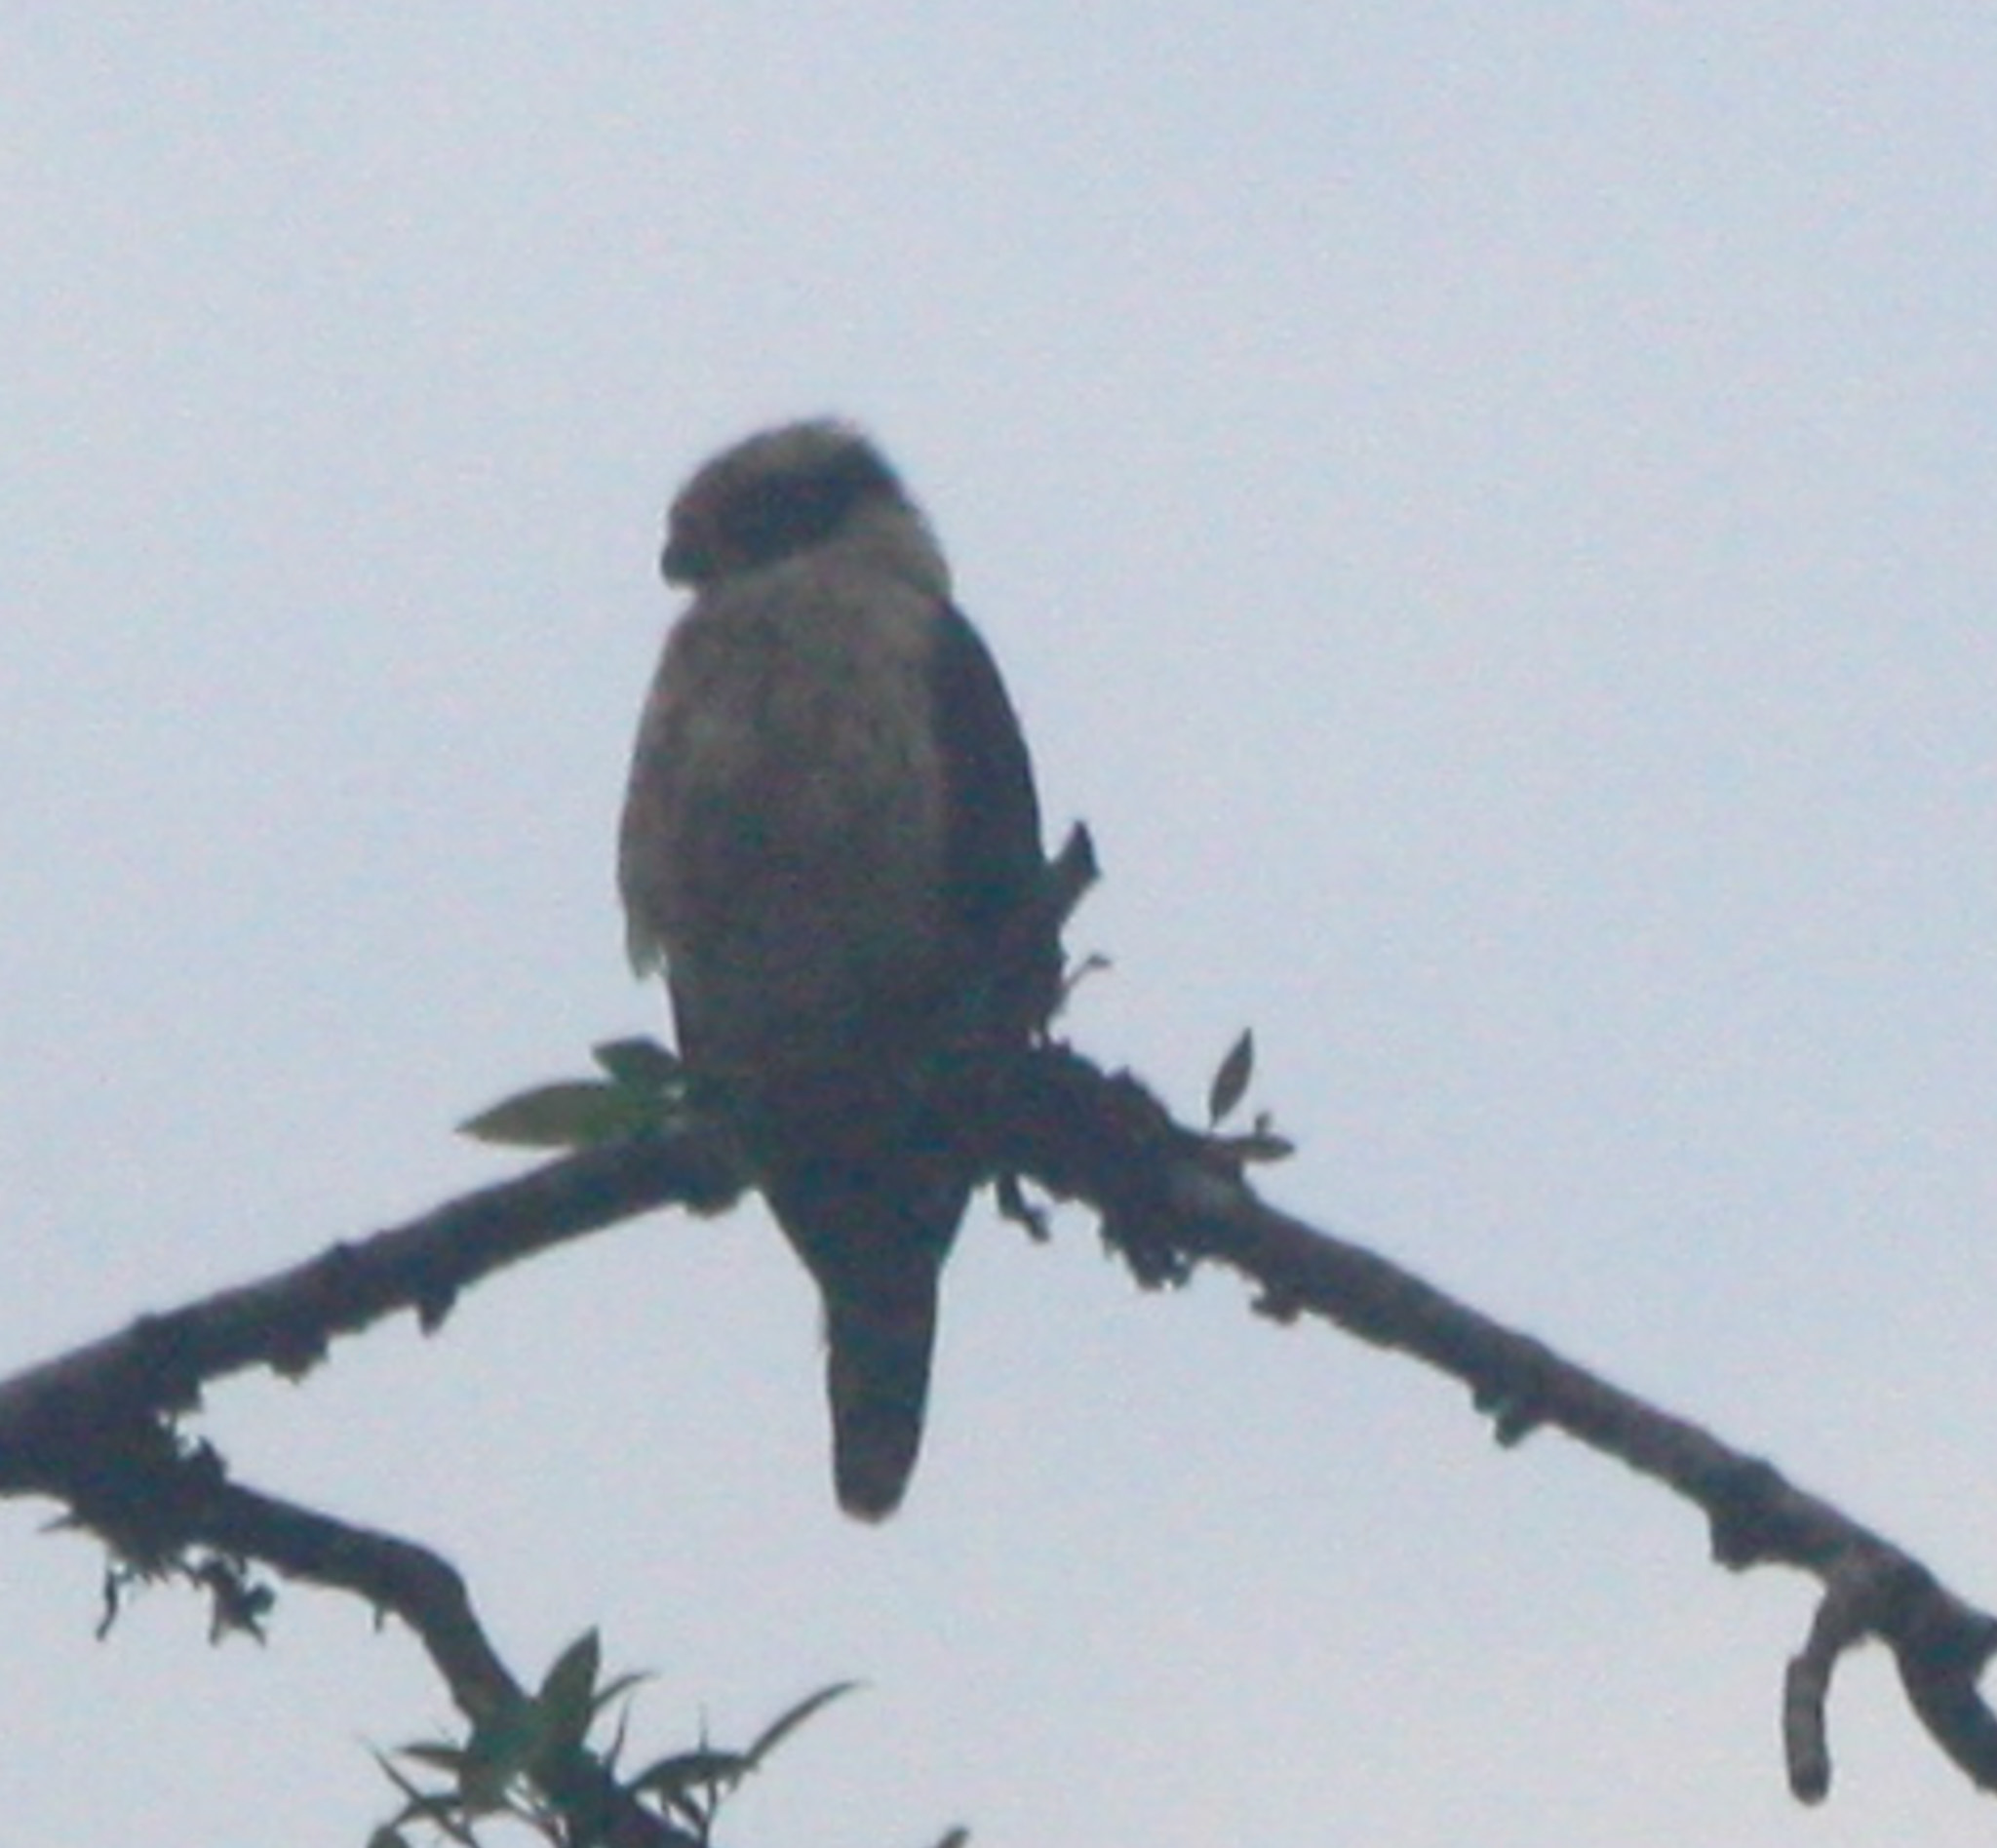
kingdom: Animalia
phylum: Chordata
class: Aves
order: Falconiformes
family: Falconidae
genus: Herpetotheres
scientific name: Herpetotheres cachinnans
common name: Laughing falcon
